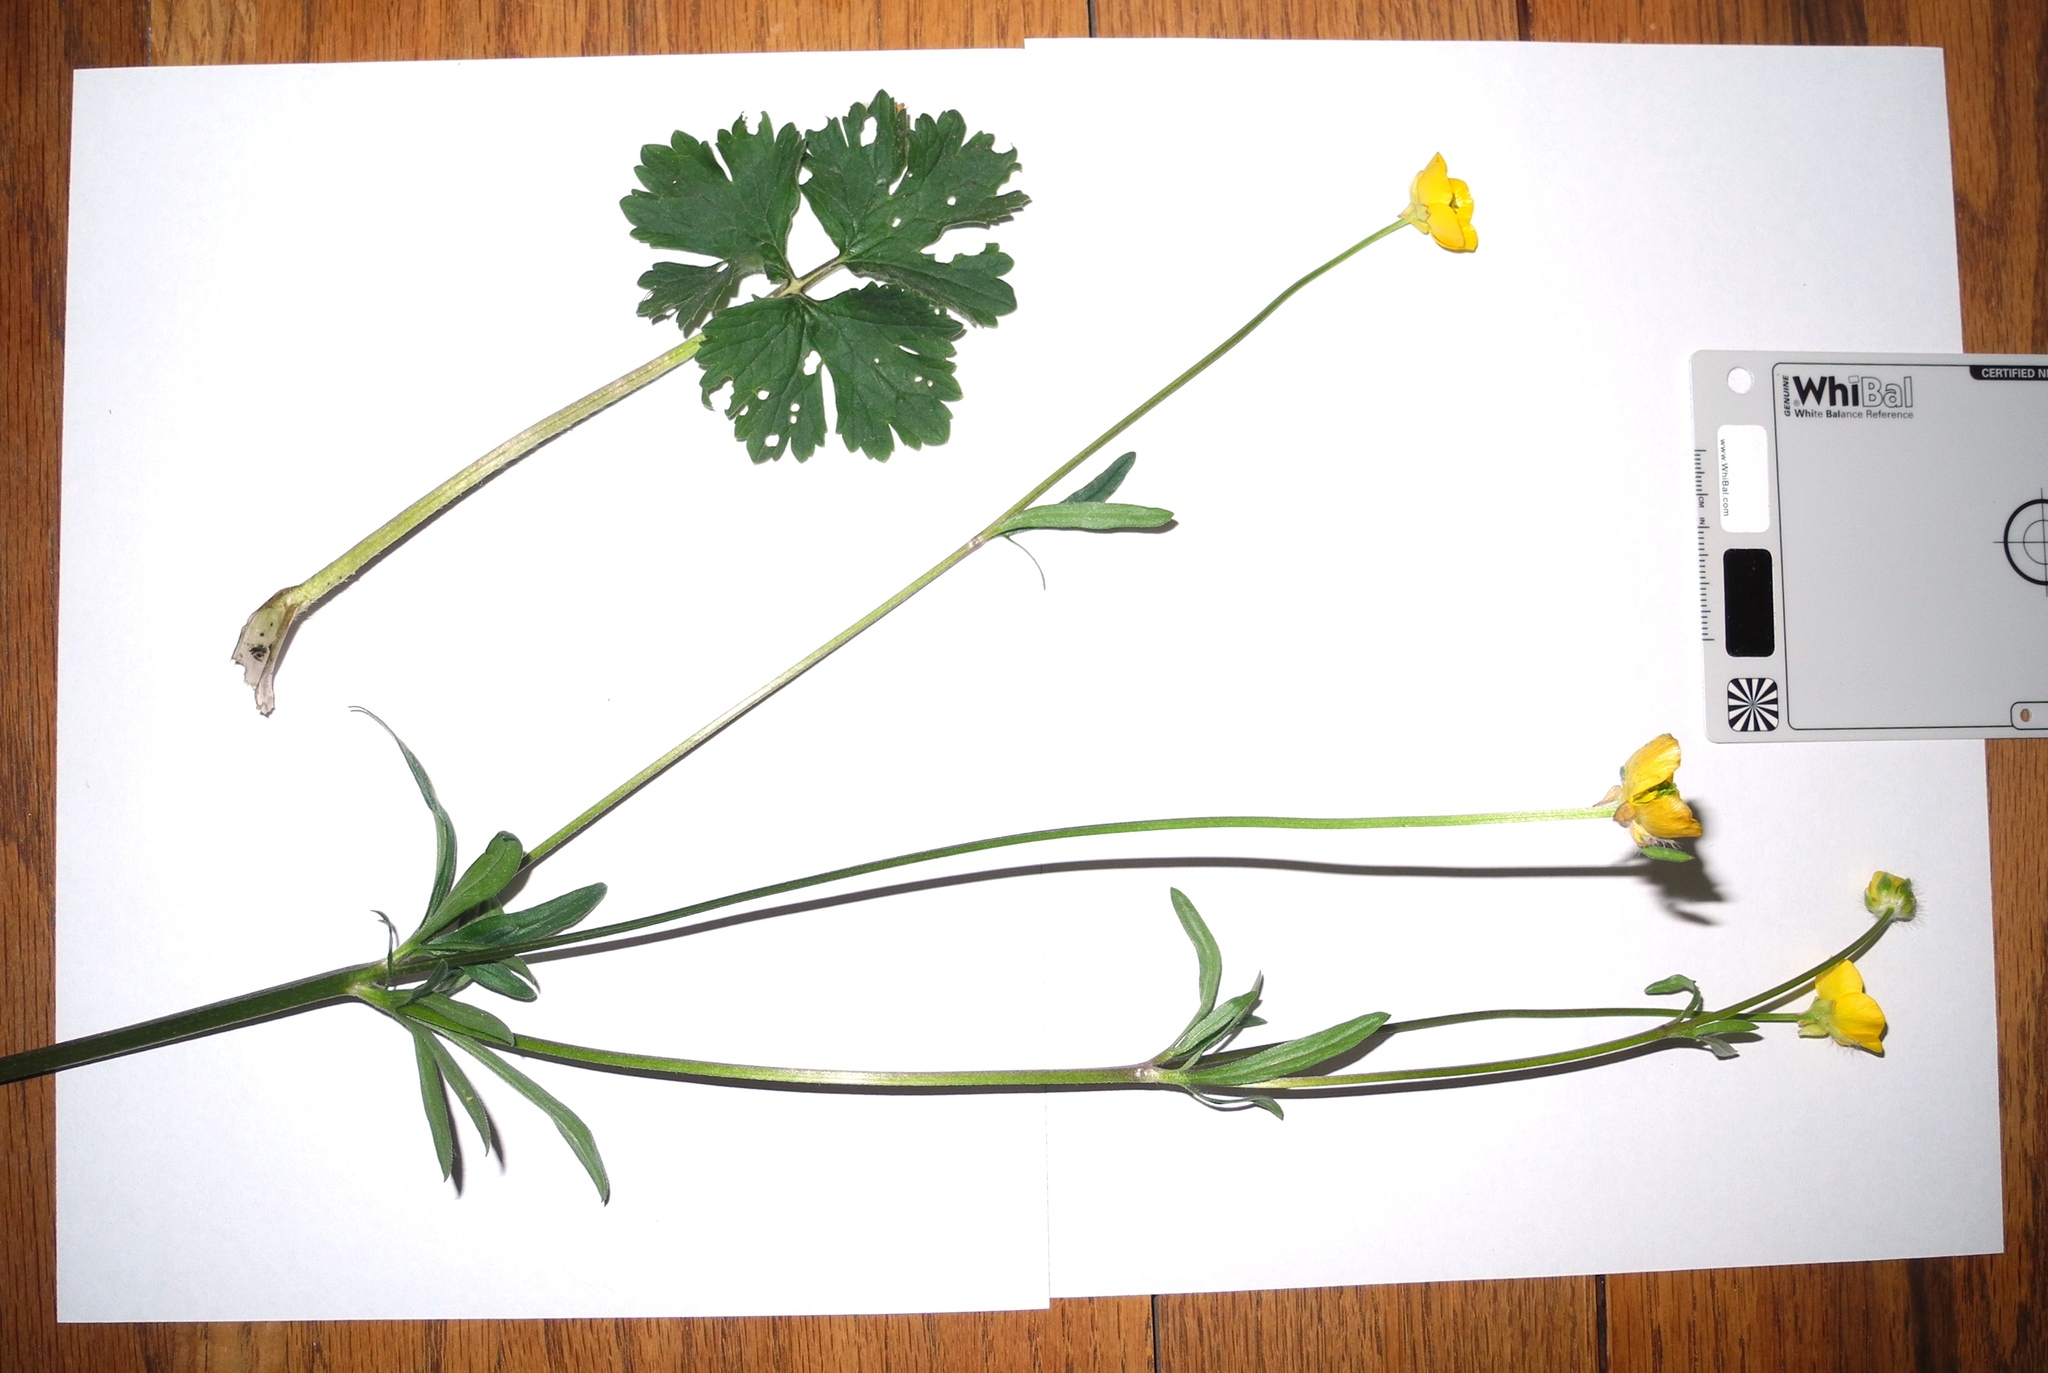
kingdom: Plantae
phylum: Tracheophyta
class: Magnoliopsida
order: Ranunculales
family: Ranunculaceae
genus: Ranunculus
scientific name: Ranunculus bulbosus
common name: Bulbous buttercup
